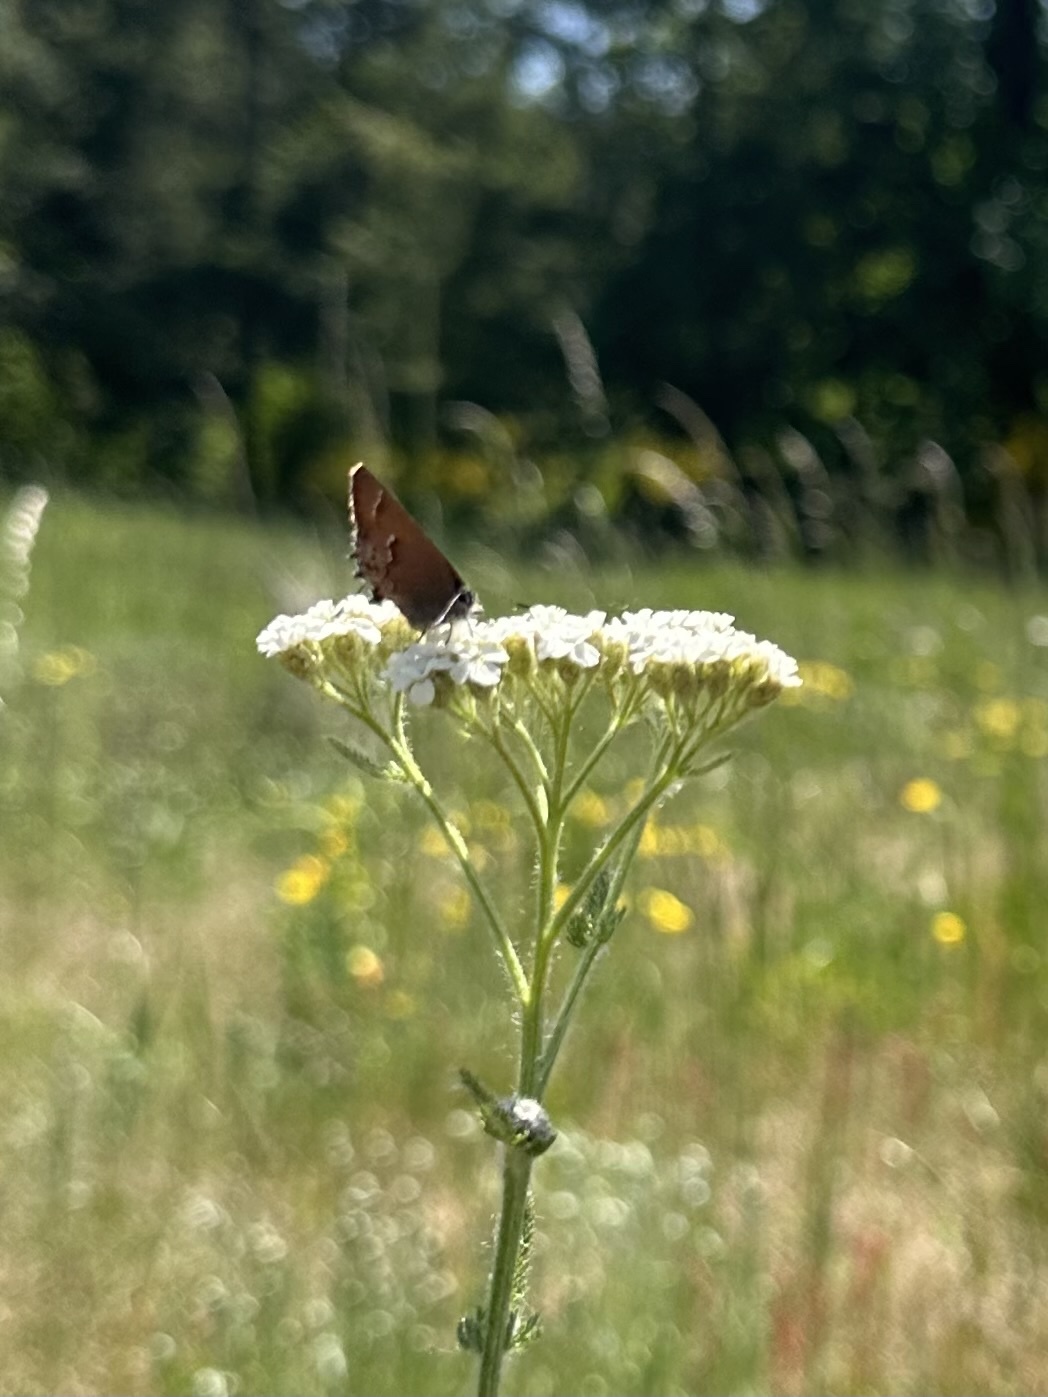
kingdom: Animalia
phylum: Arthropoda
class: Insecta
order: Lepidoptera
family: Lycaenidae
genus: Mitoura
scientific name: Mitoura gryneus
